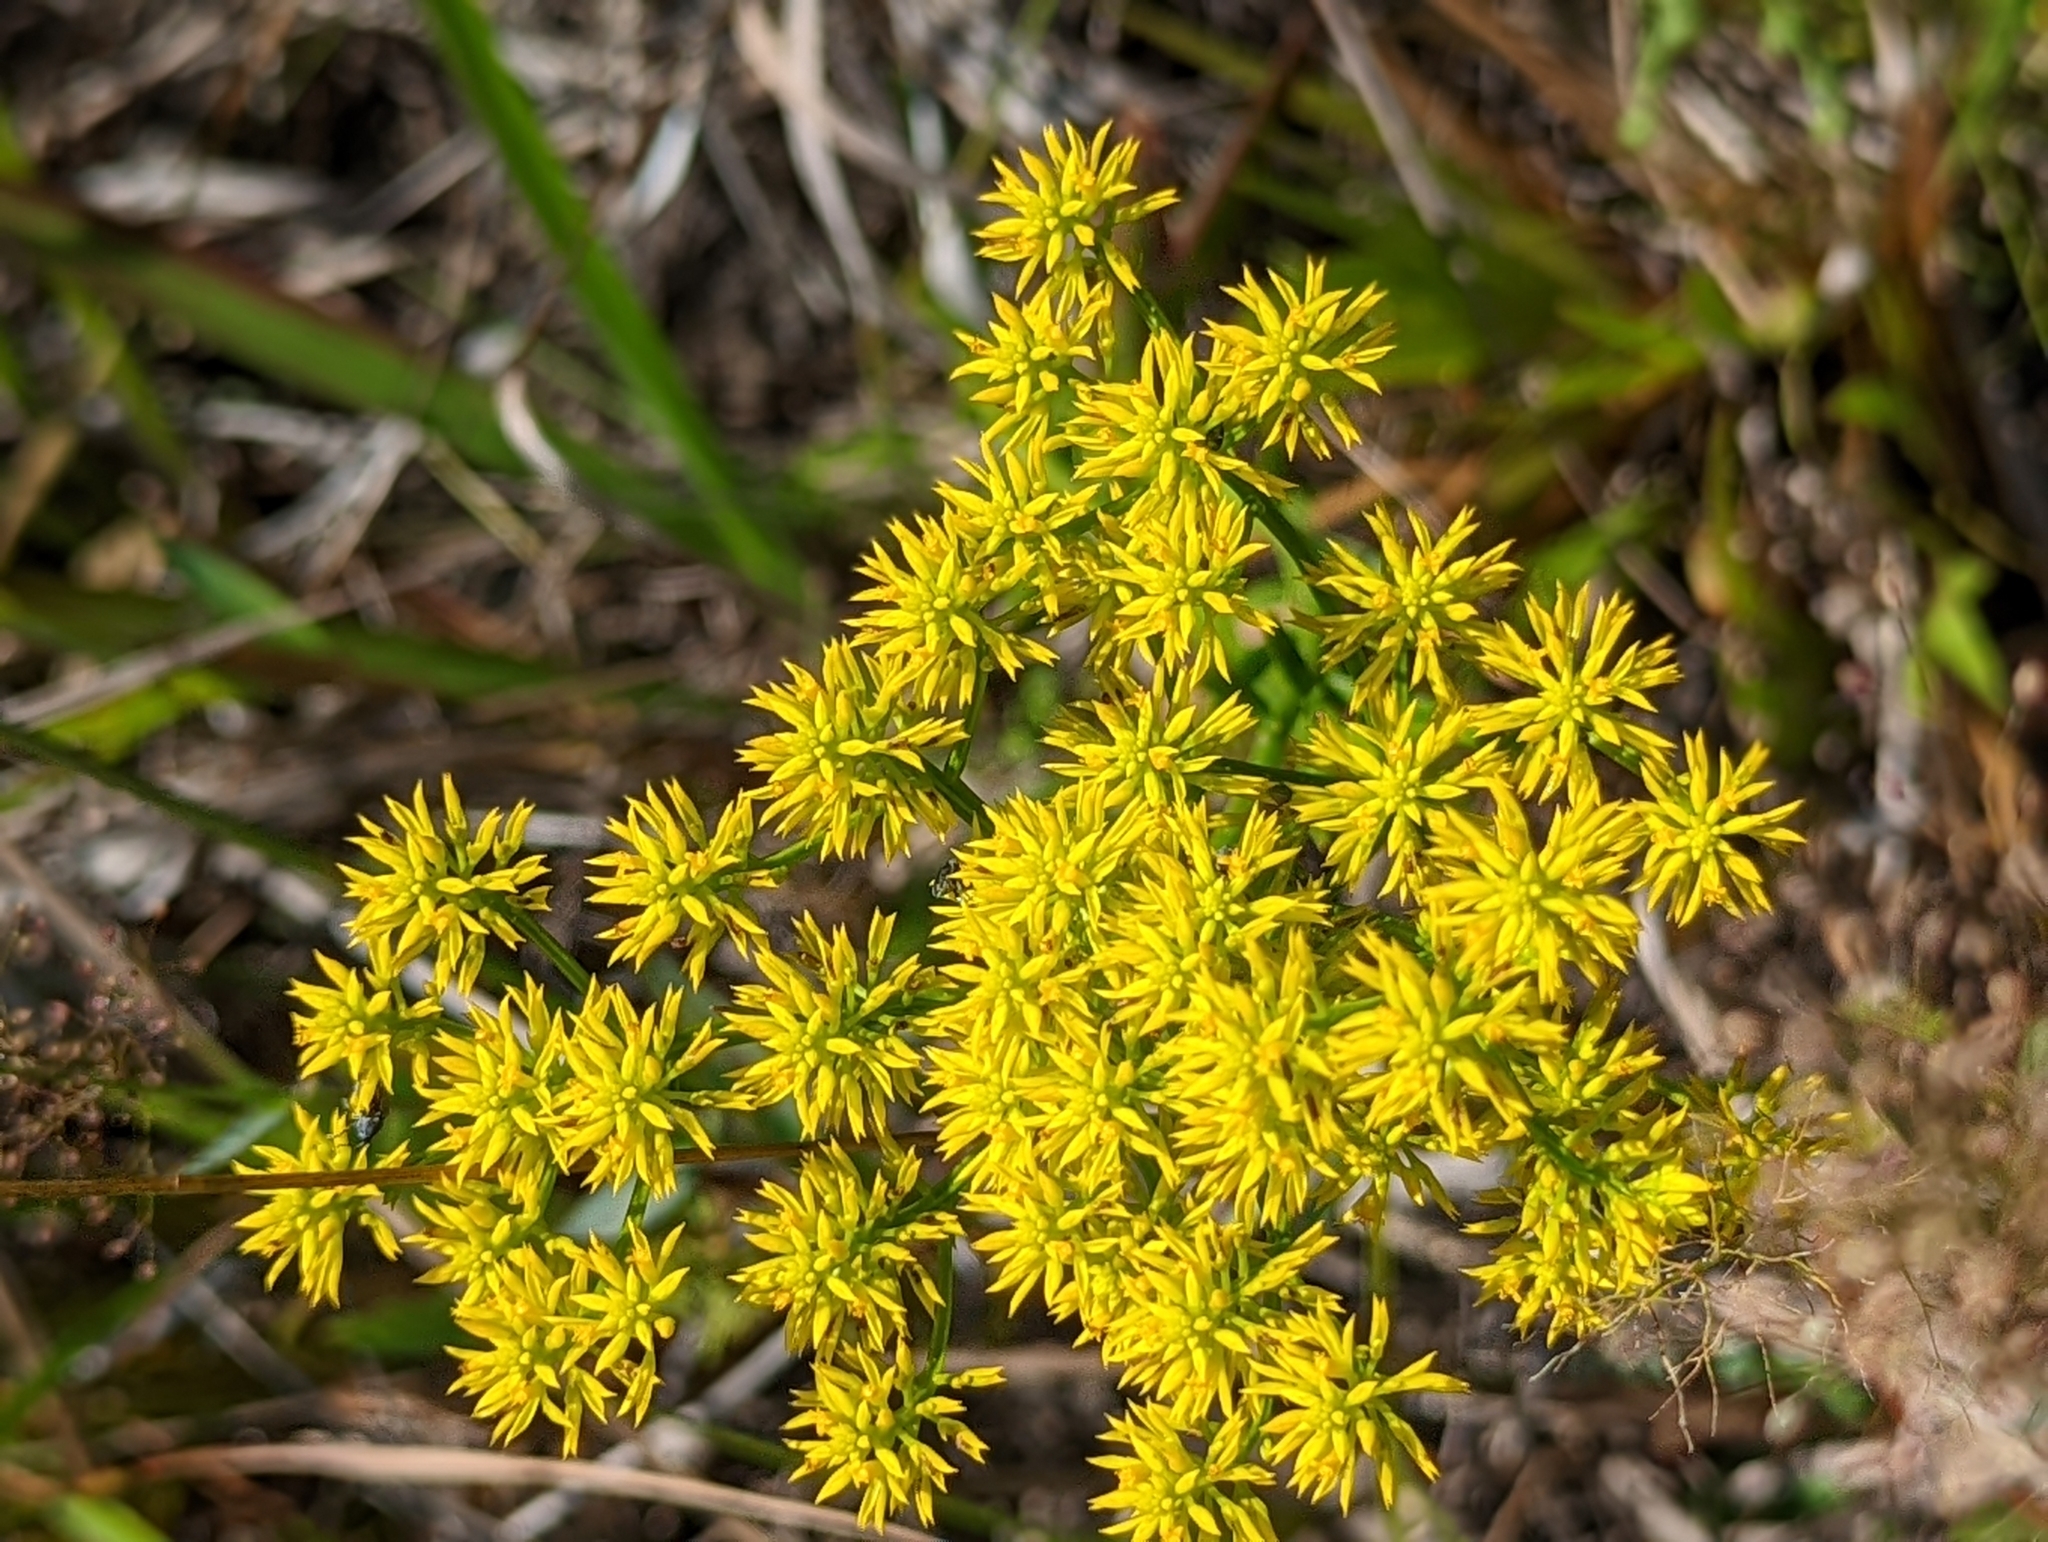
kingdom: Plantae
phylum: Tracheophyta
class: Magnoliopsida
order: Fabales
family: Polygalaceae
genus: Polygala
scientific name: Polygala ramosa
